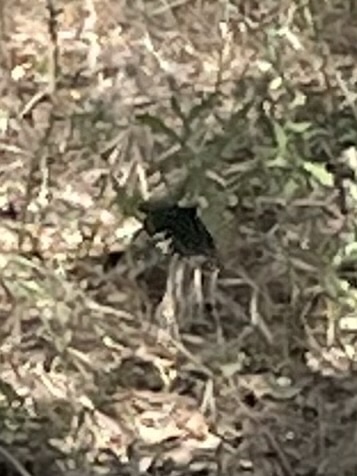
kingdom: Animalia
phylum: Arthropoda
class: Insecta
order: Lepidoptera
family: Papilionidae
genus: Battus
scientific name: Battus philenor
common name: Pipevine swallowtail
